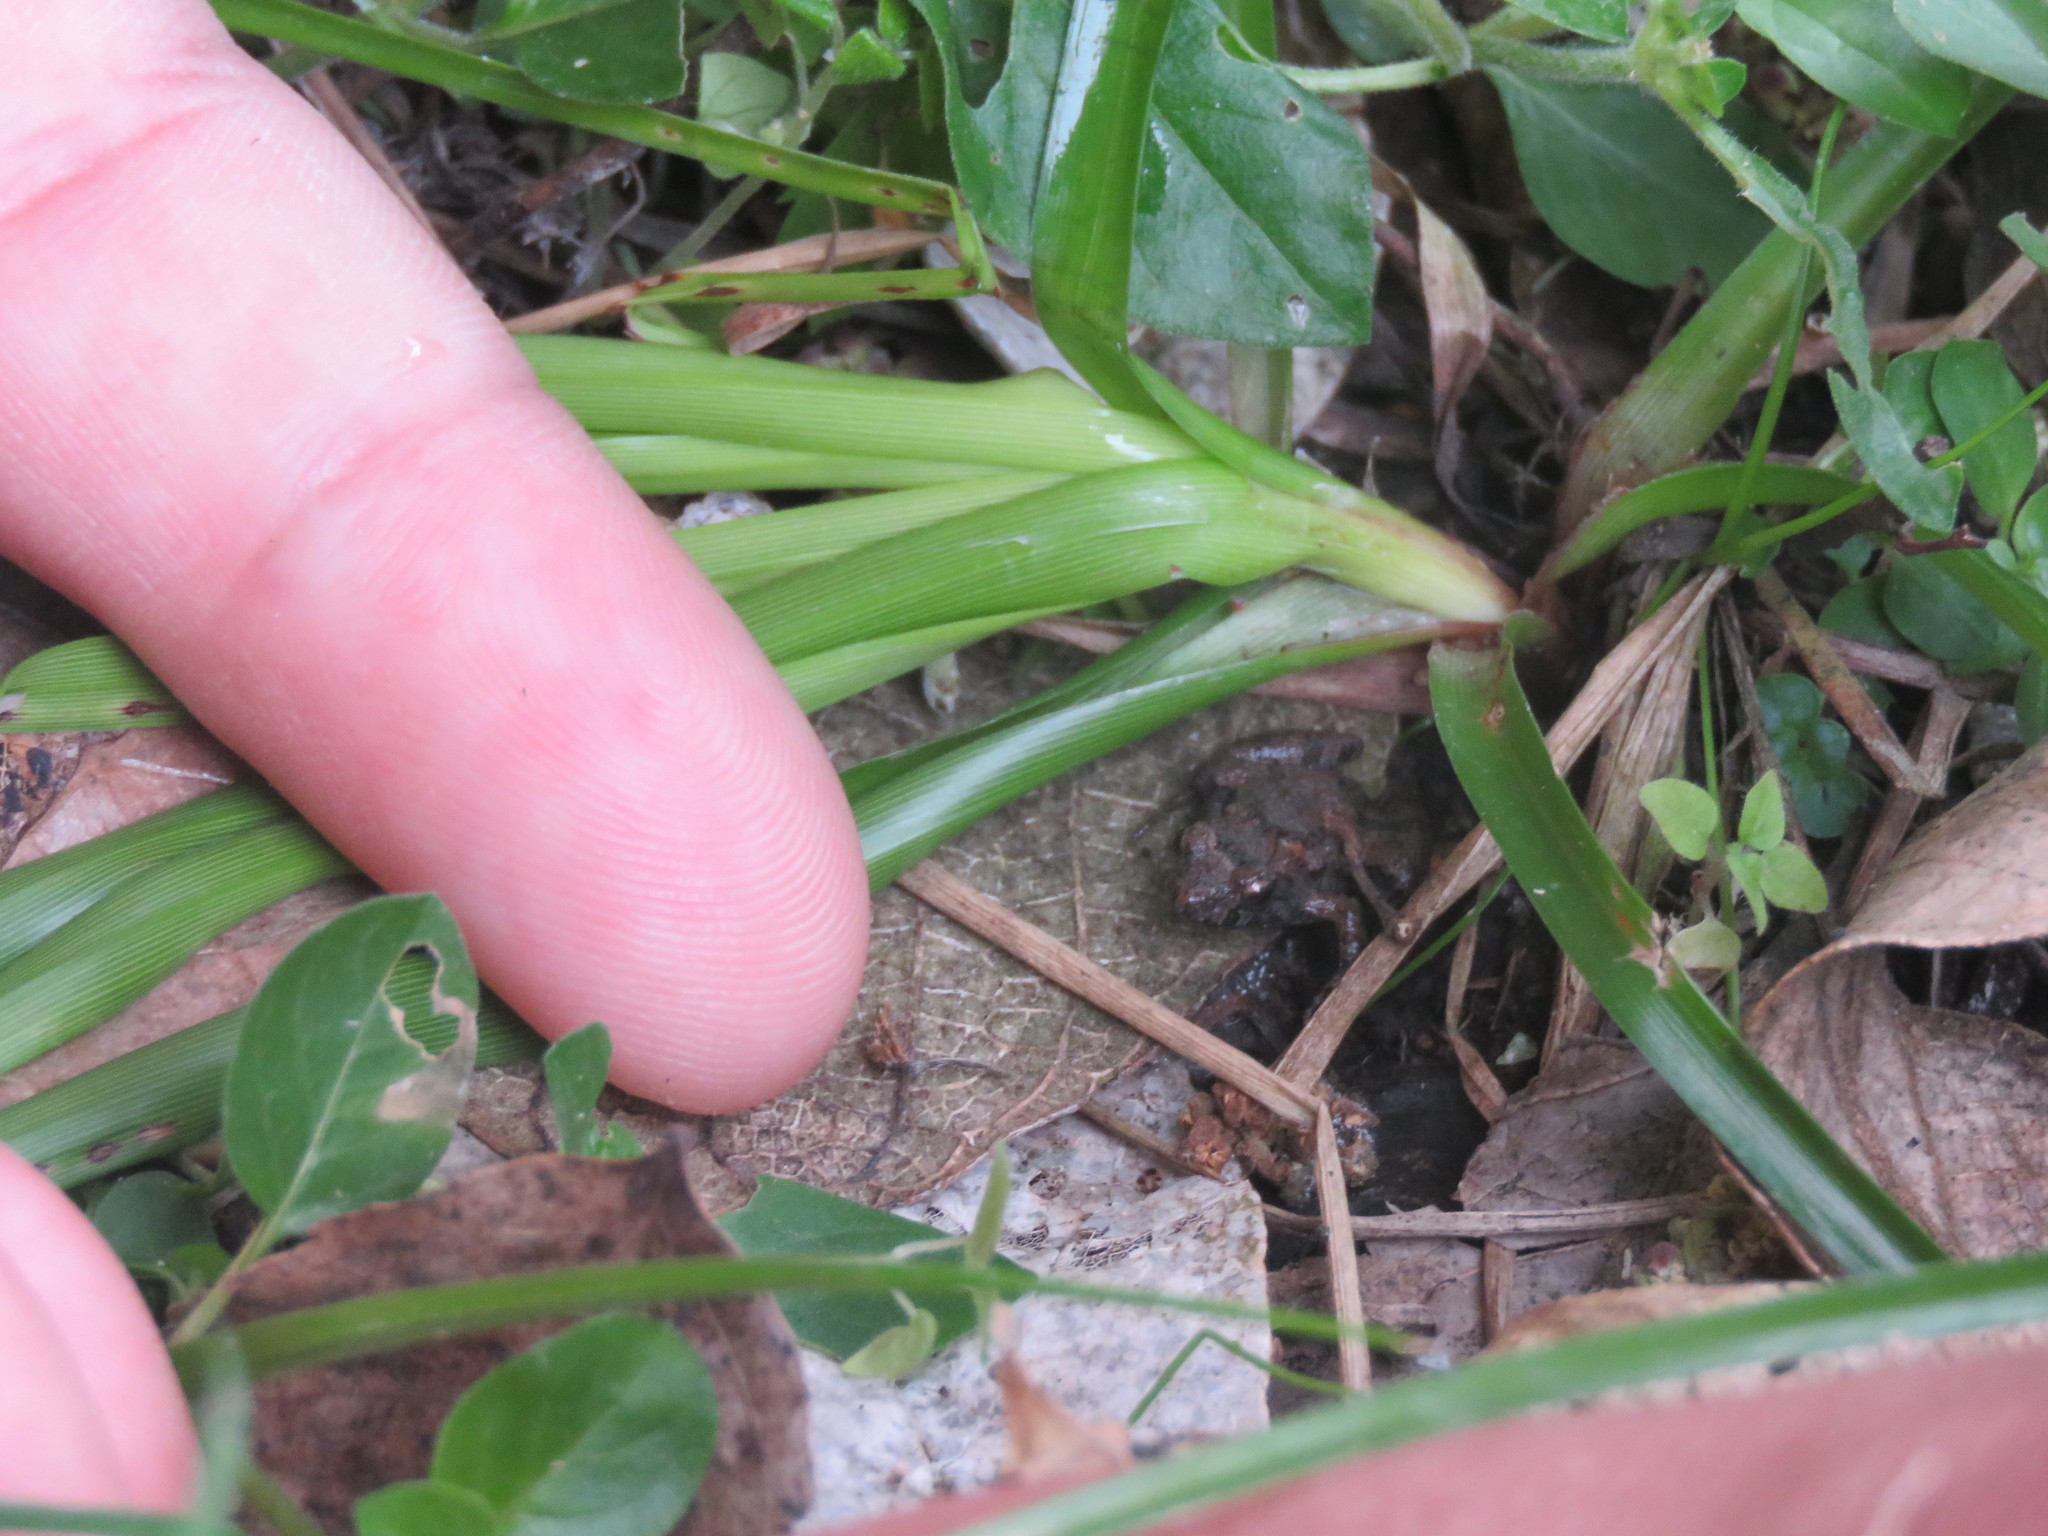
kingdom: Animalia
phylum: Chordata
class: Amphibia
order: Anura
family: Leptodactylidae
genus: Pseudopaludicola
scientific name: Pseudopaludicola falcipes
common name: Hensel’s swamp frog
